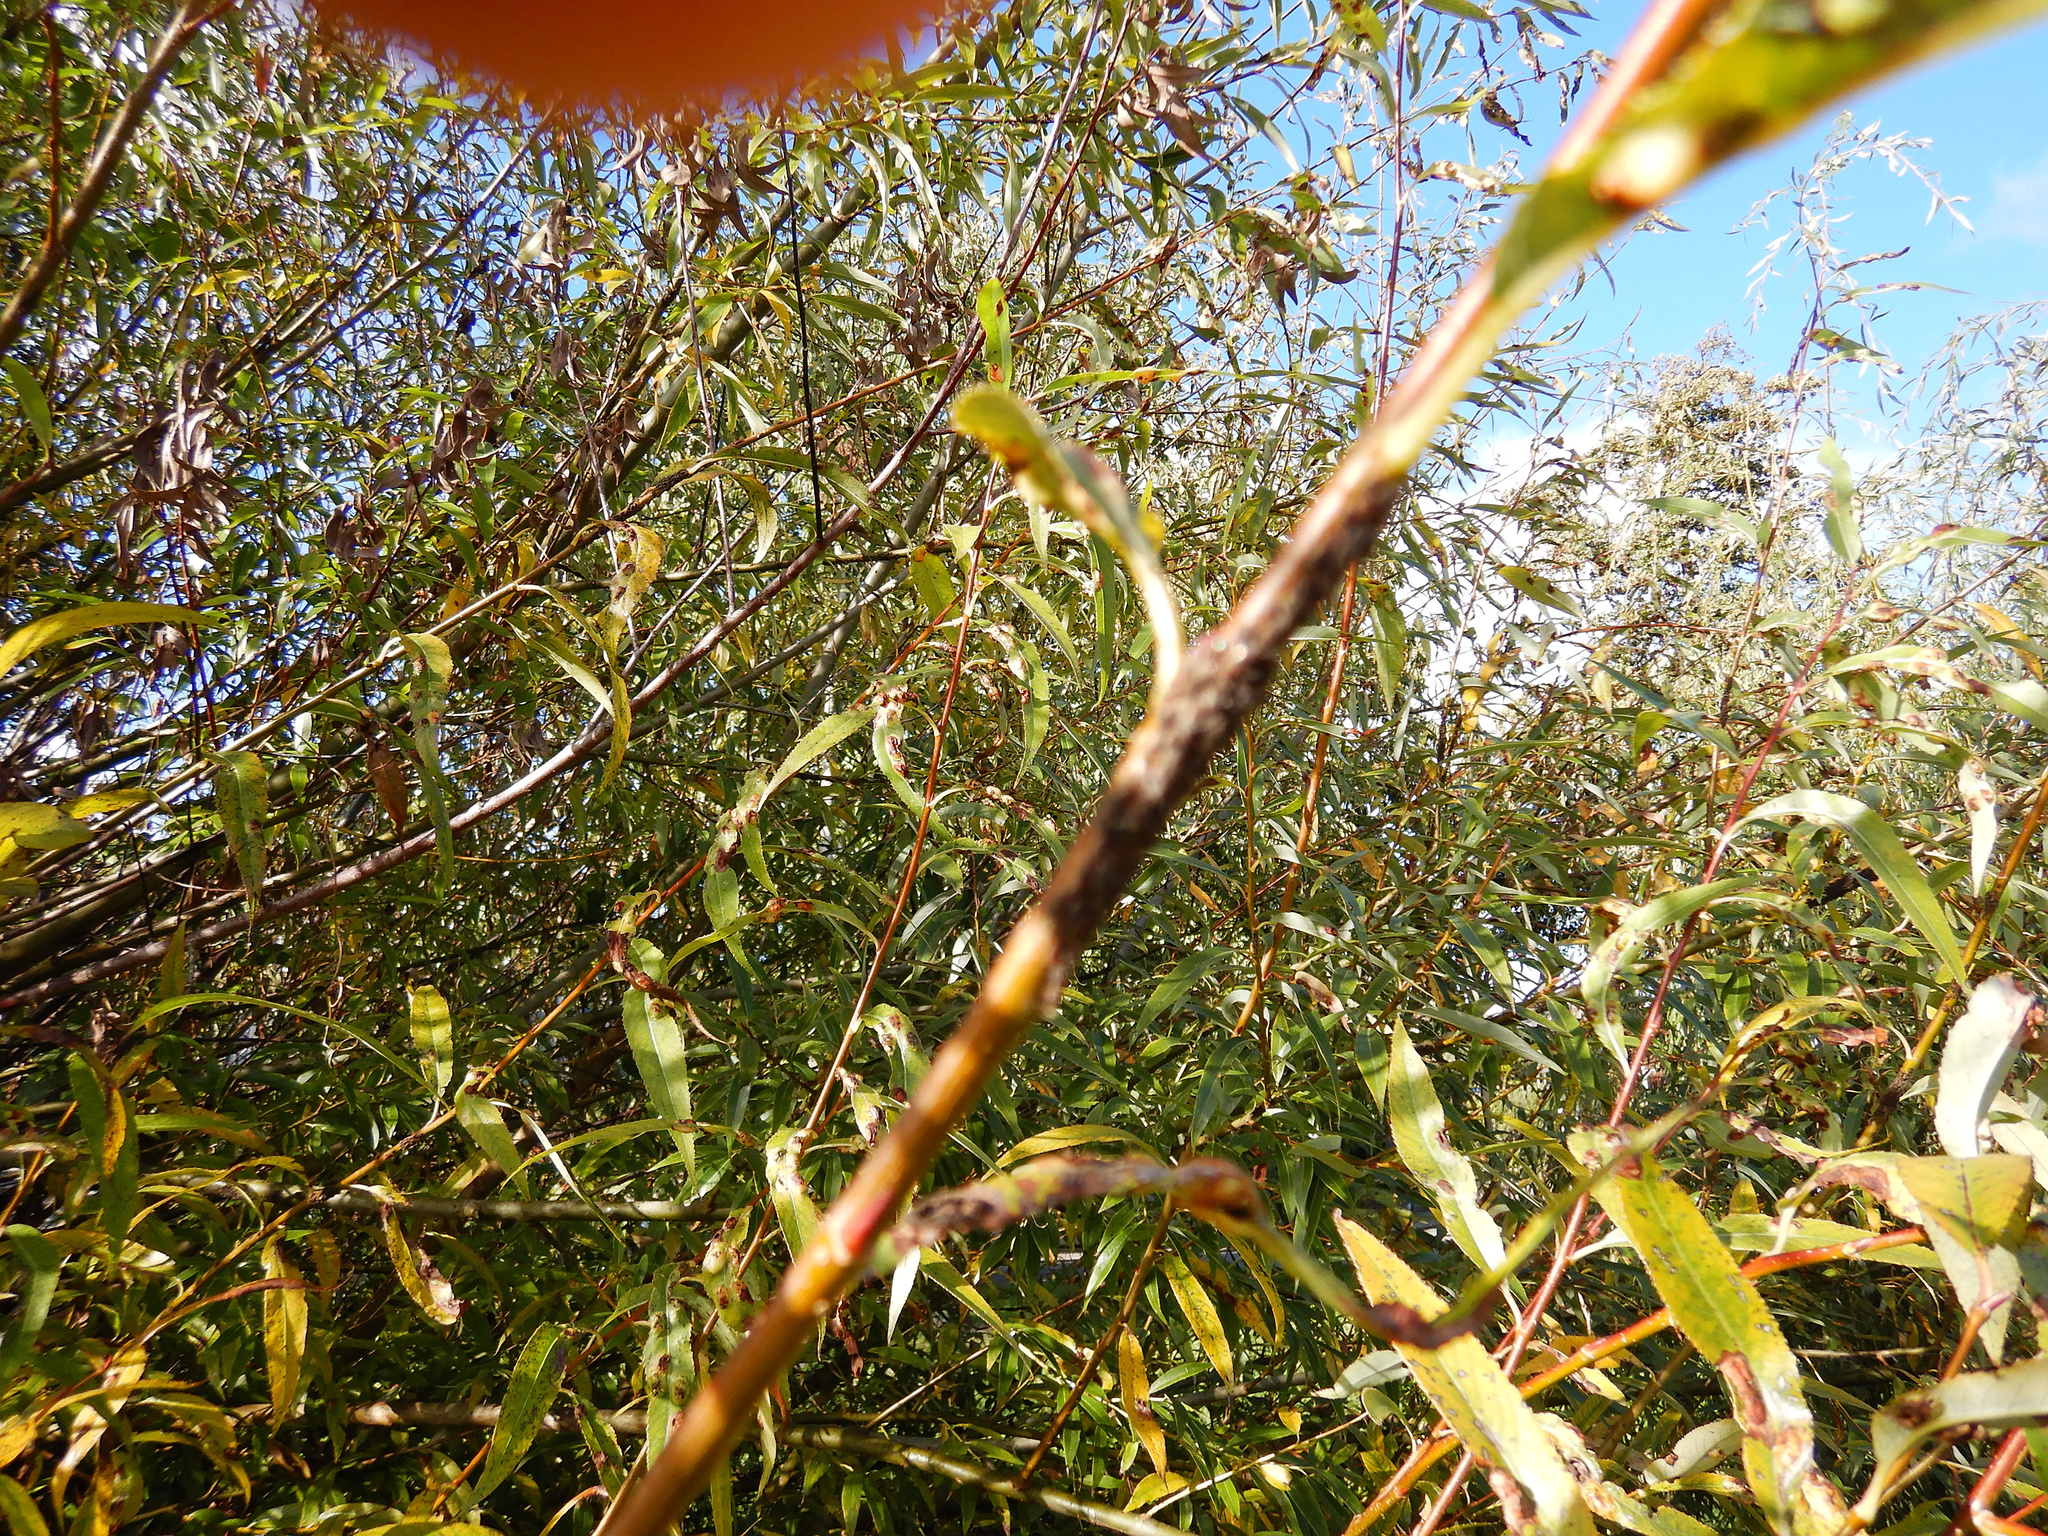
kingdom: Animalia
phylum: Arthropoda
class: Insecta
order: Hemiptera
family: Aphididae
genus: Tuberolachnus
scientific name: Tuberolachnus salignus
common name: Giant willow aphid
